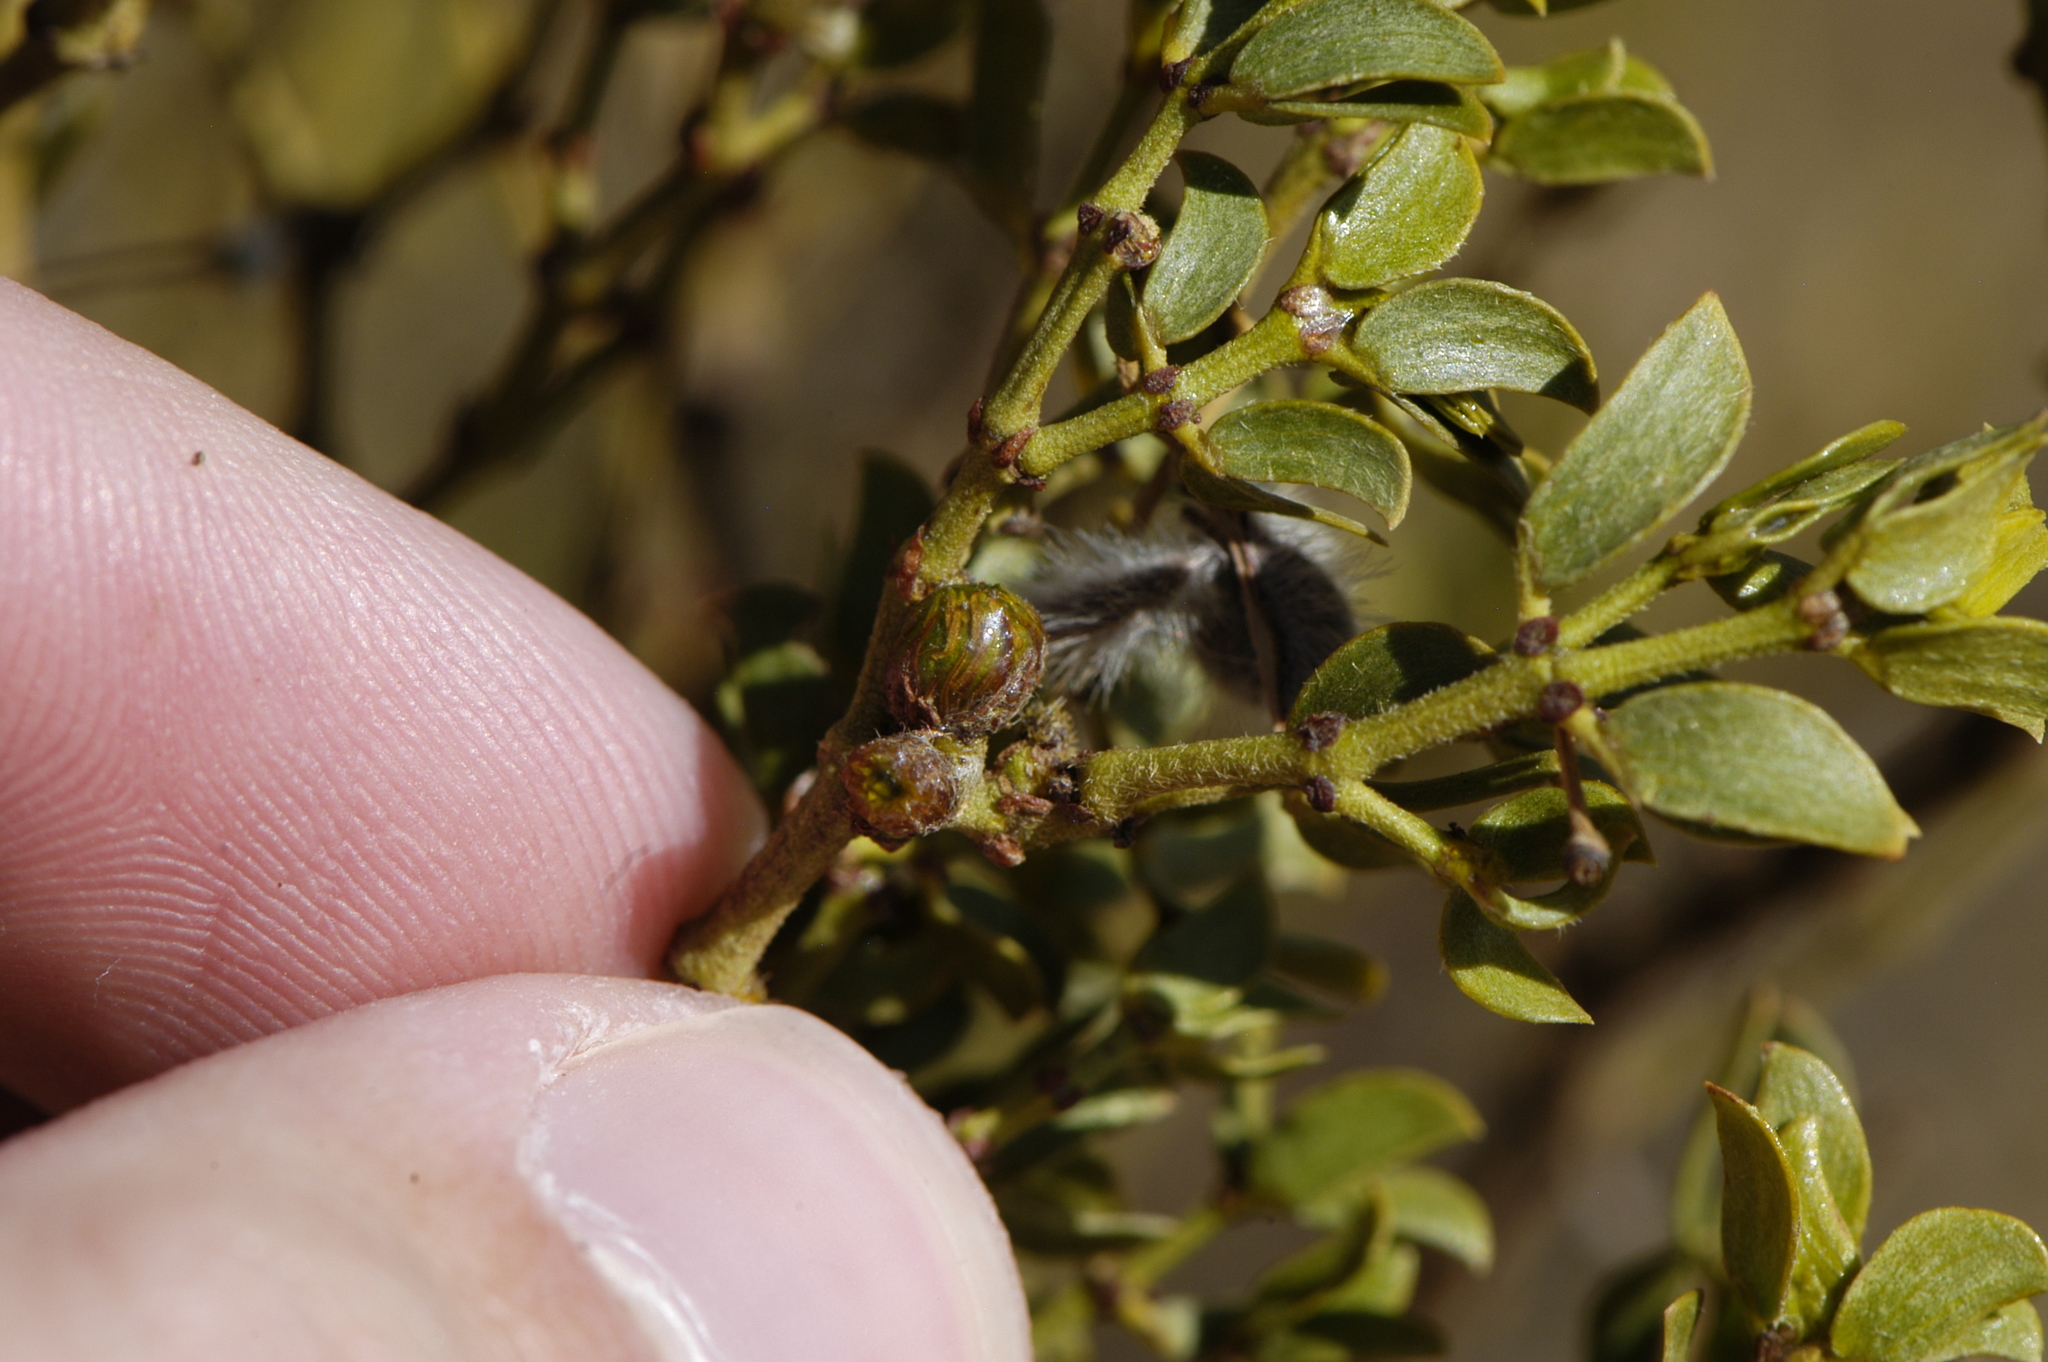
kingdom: Animalia
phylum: Arthropoda
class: Insecta
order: Diptera
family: Cecidomyiidae
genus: Asphondylia
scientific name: Asphondylia resinosa
